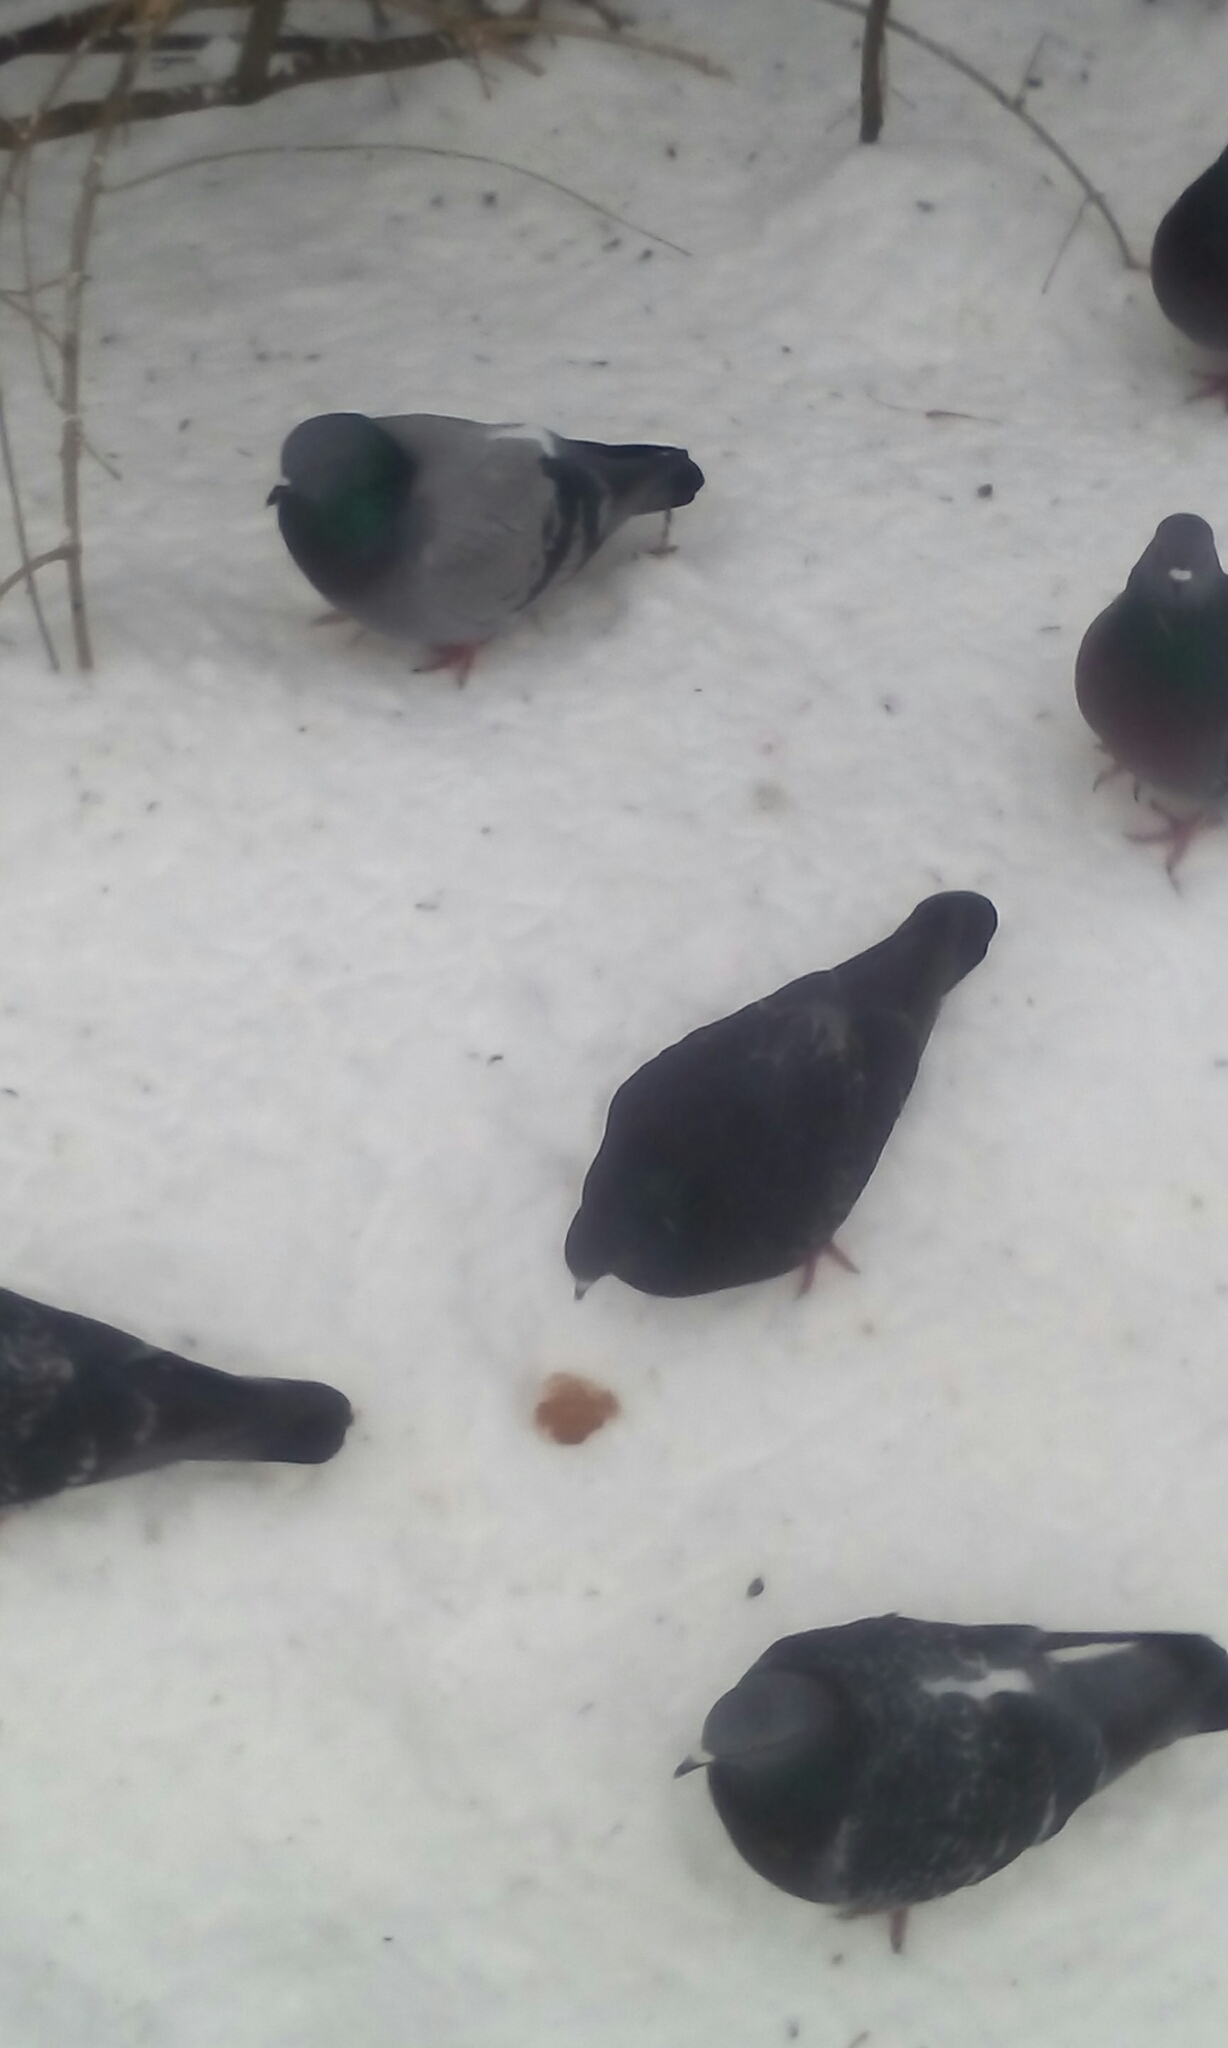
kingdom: Animalia
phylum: Chordata
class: Aves
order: Columbiformes
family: Columbidae
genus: Columba
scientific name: Columba livia
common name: Rock pigeon
